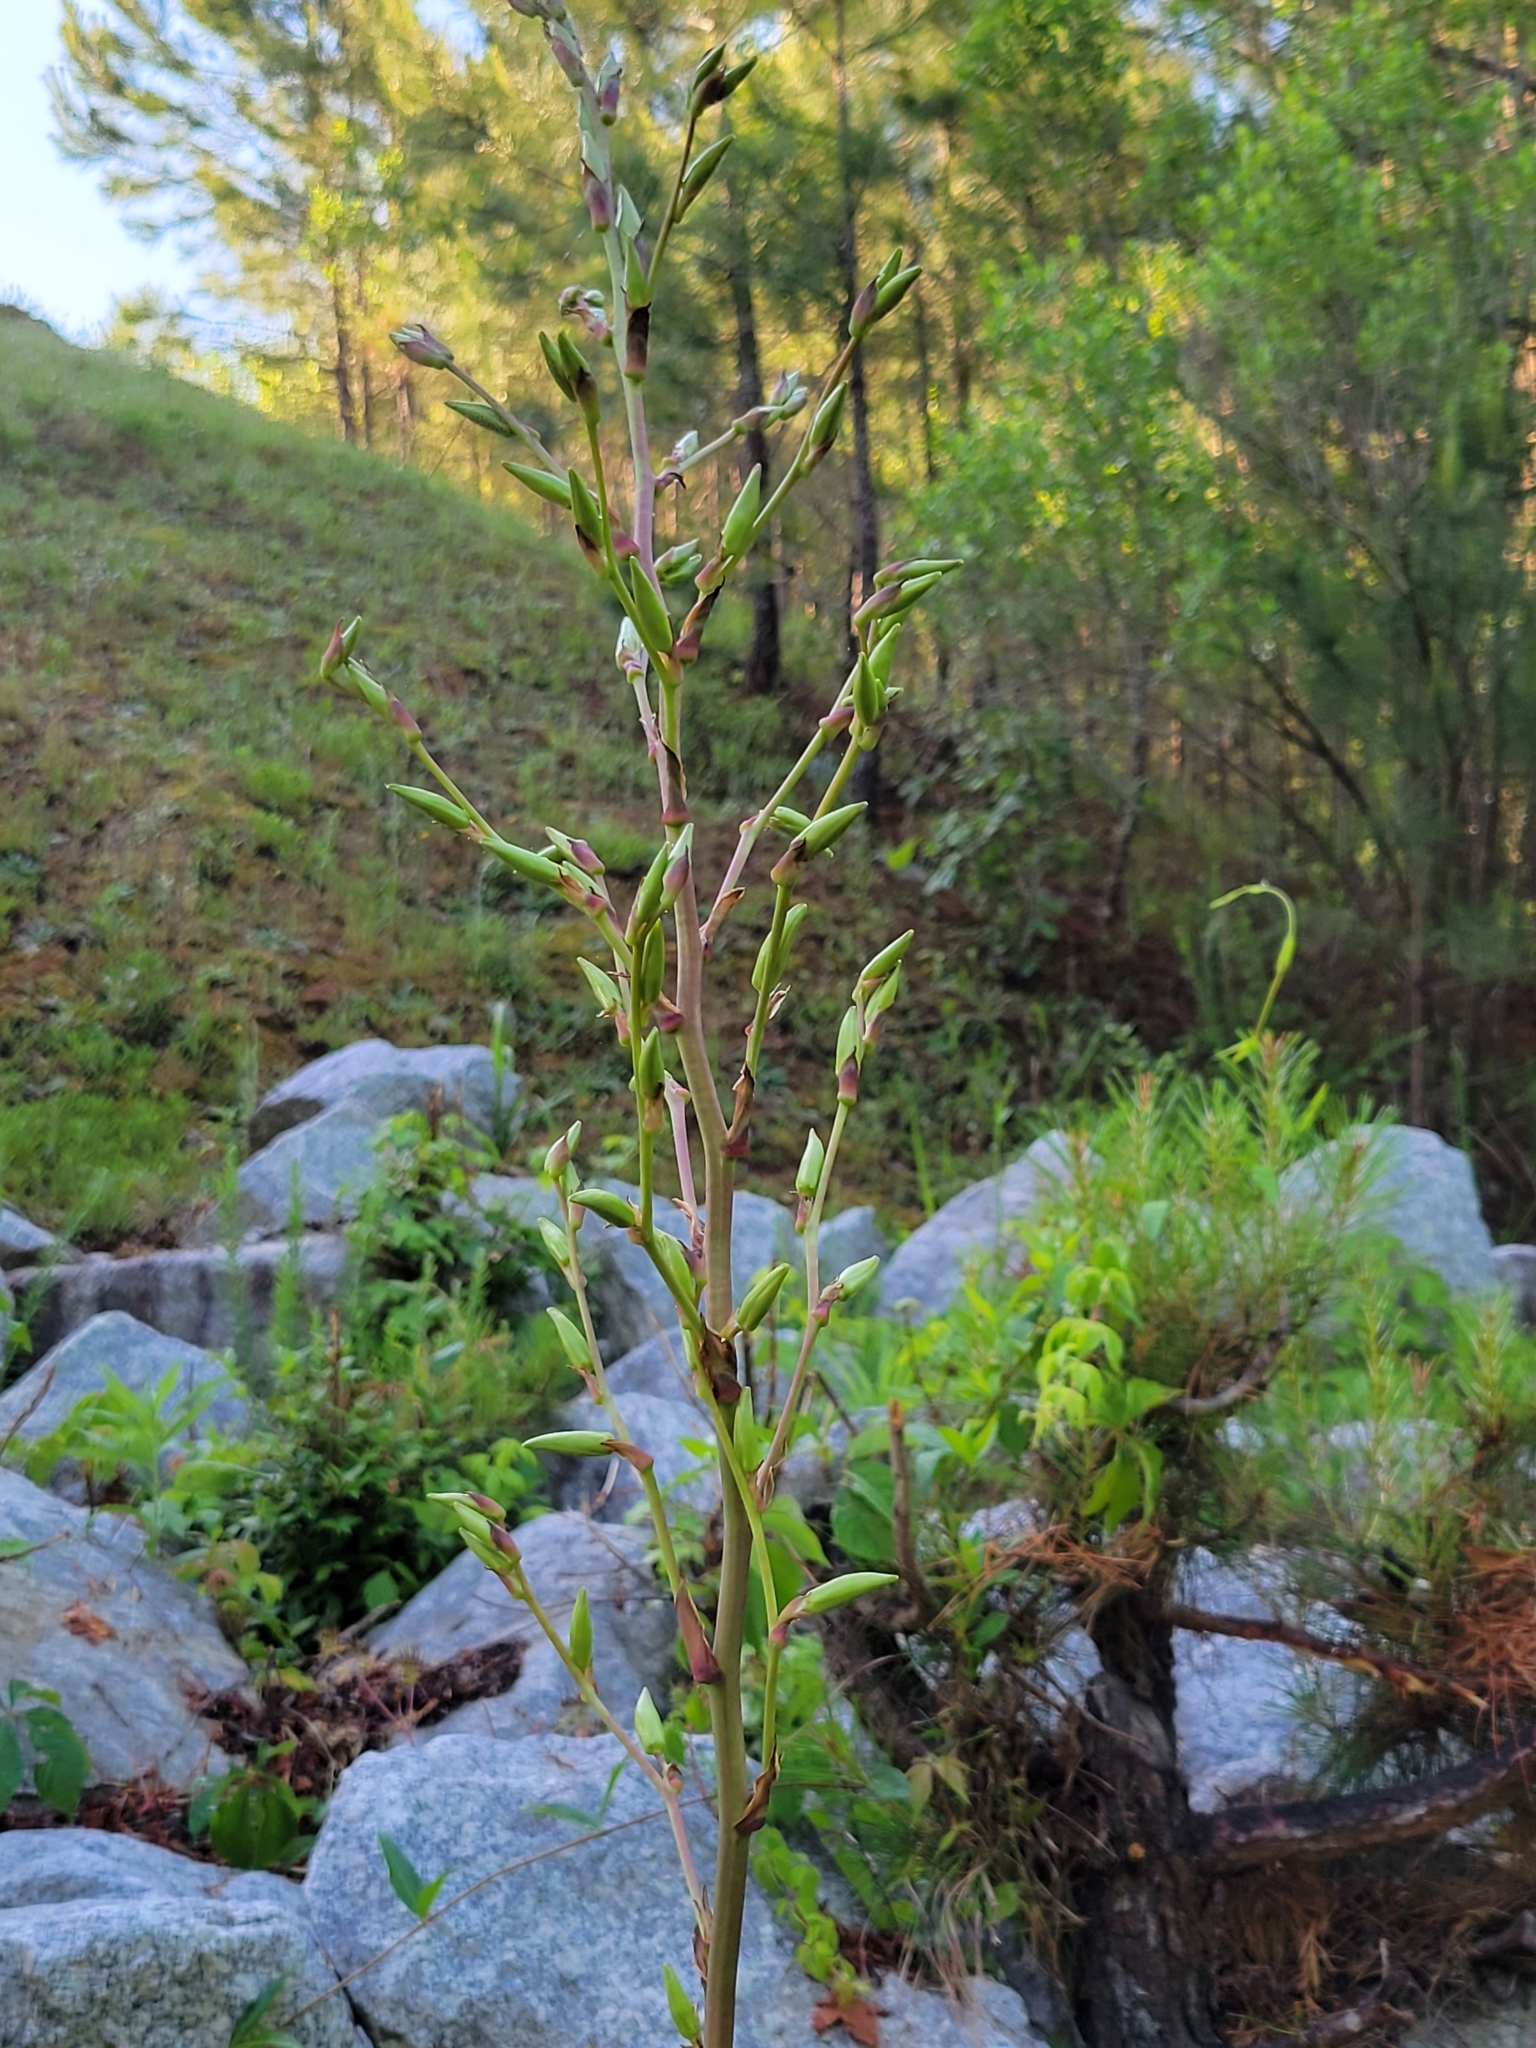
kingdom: Plantae
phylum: Tracheophyta
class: Liliopsida
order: Asparagales
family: Asparagaceae
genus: Yucca
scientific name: Yucca filamentosa
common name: Adam's-needle
